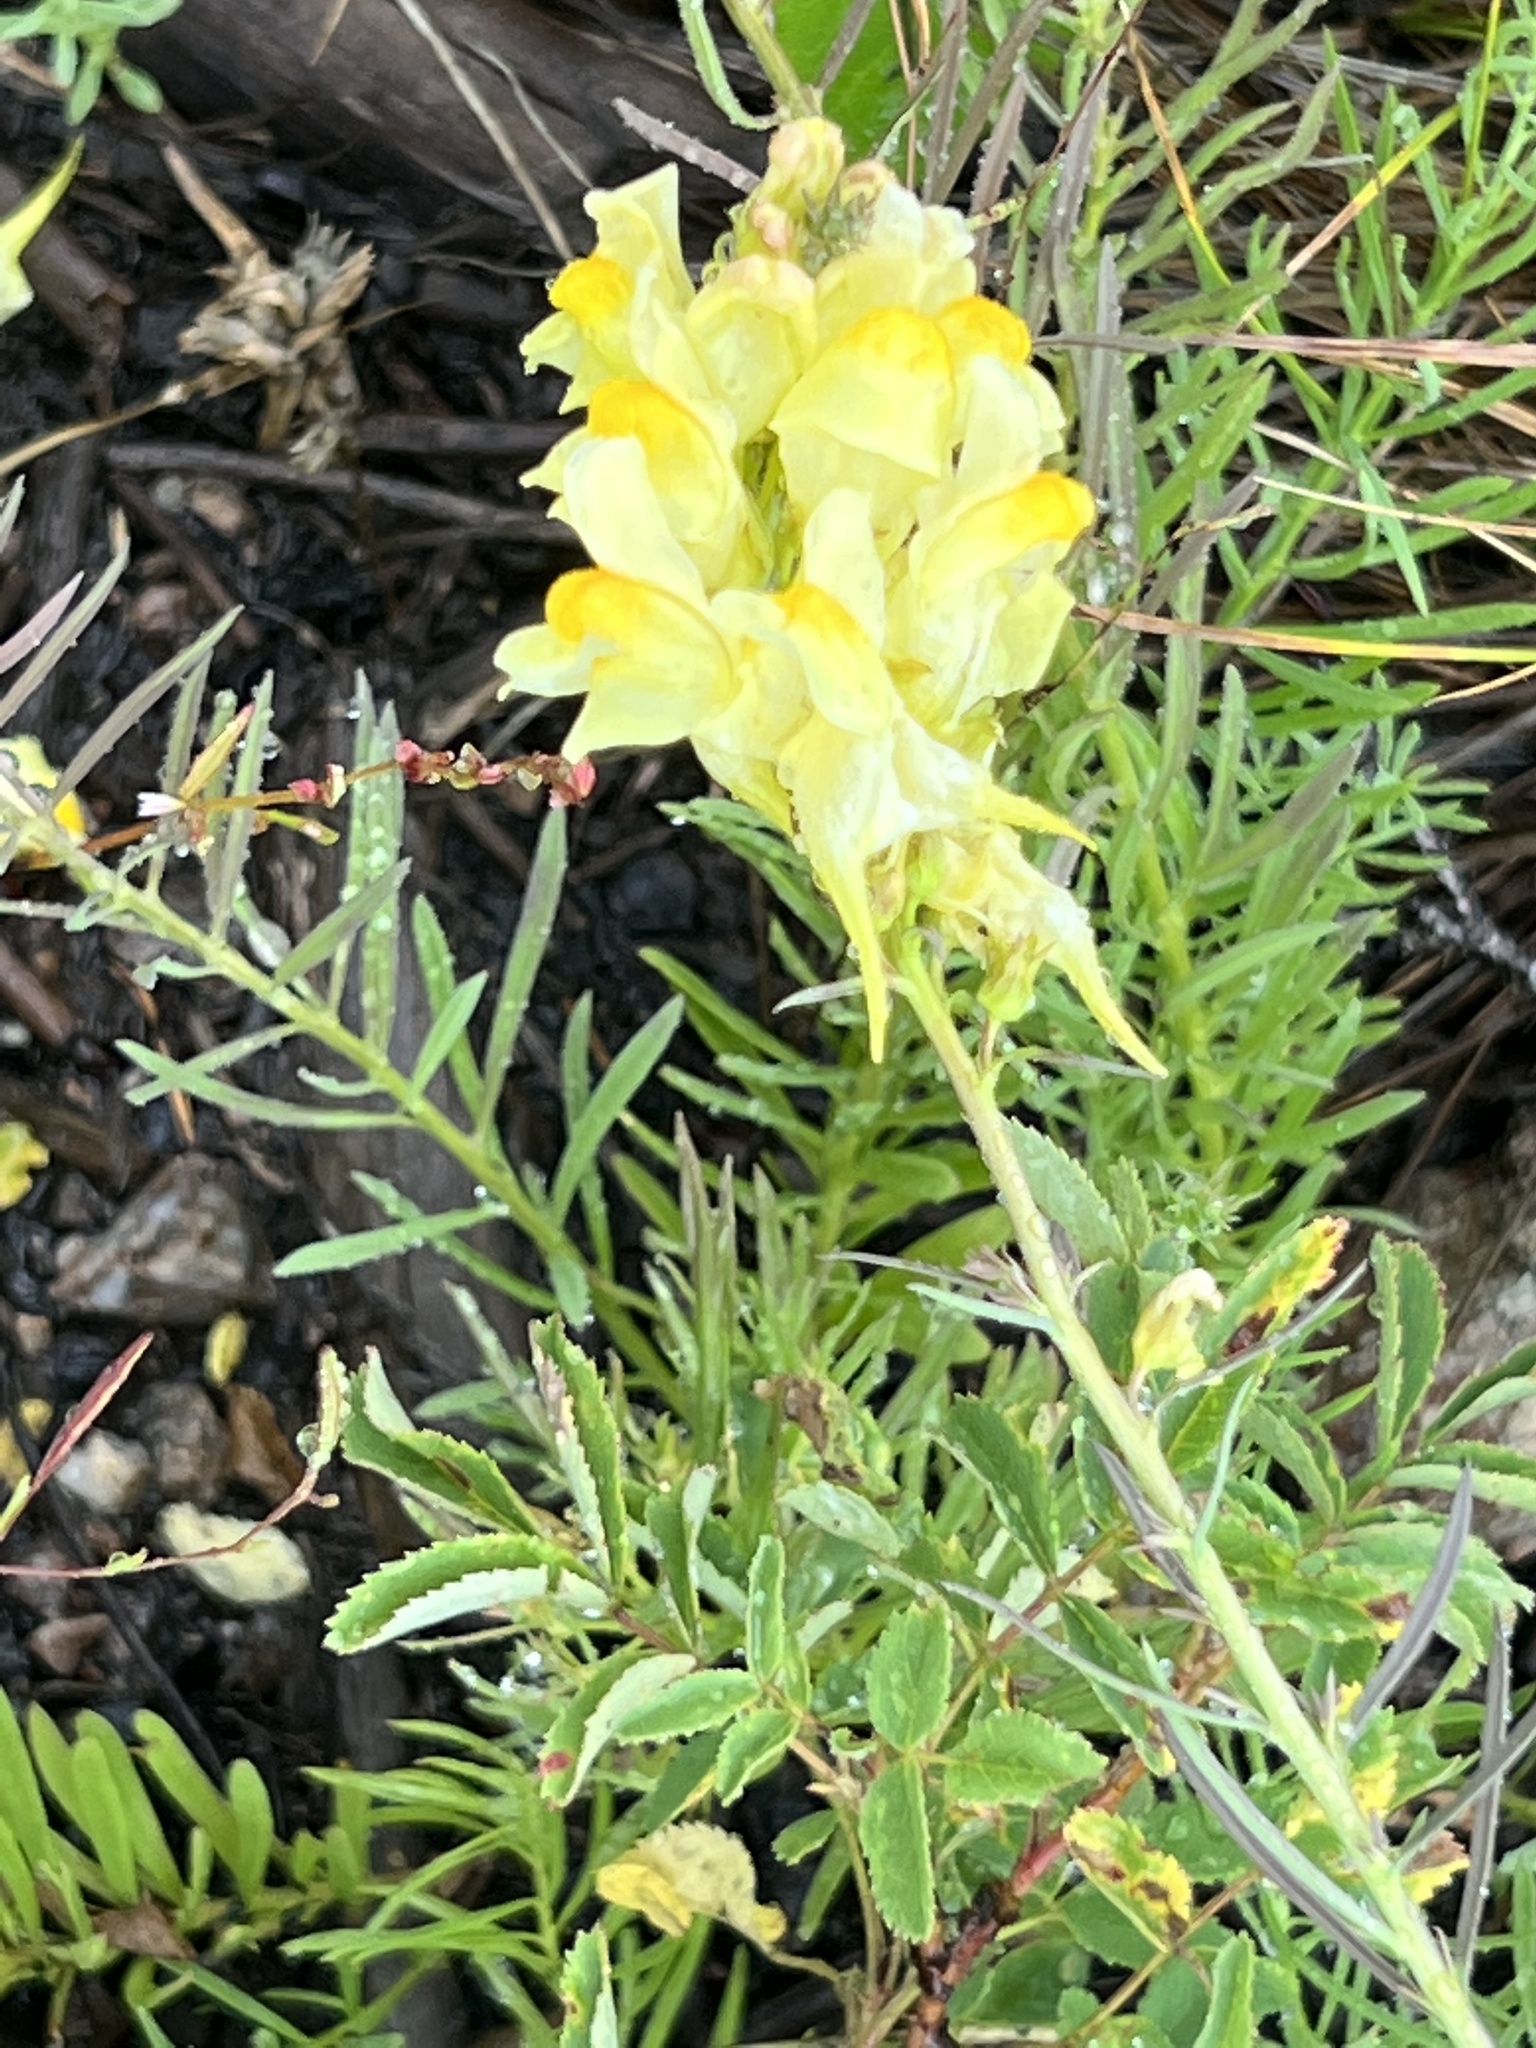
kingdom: Plantae
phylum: Tracheophyta
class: Magnoliopsida
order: Lamiales
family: Plantaginaceae
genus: Linaria
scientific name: Linaria vulgaris
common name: Butter and eggs
